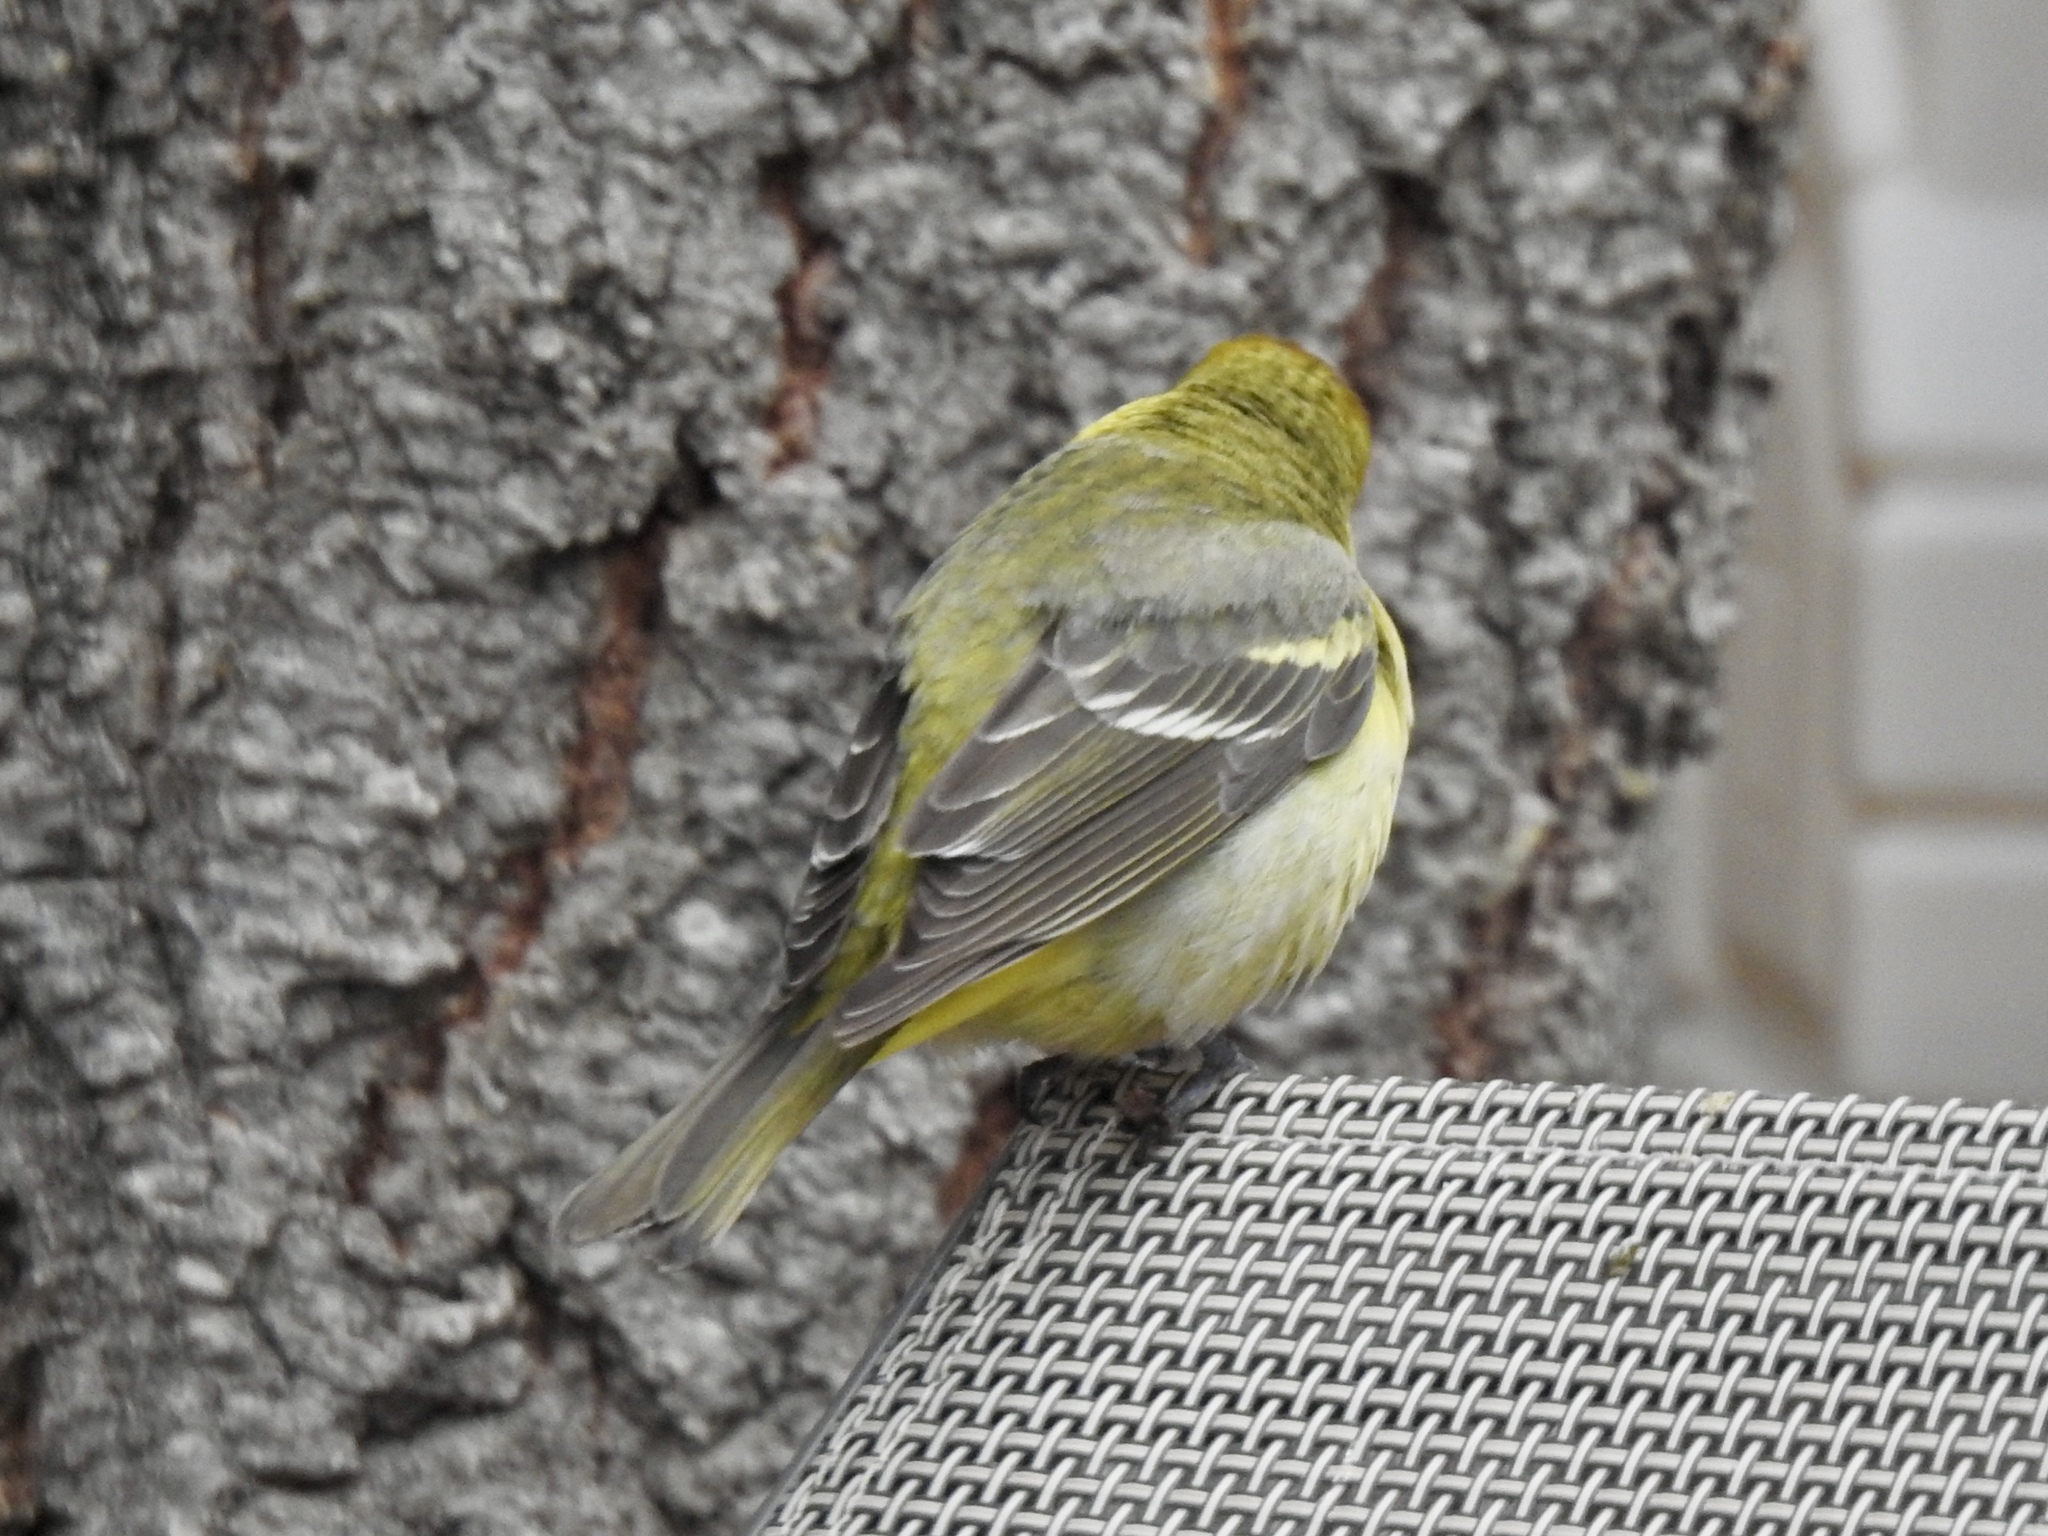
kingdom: Animalia
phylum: Chordata
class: Aves
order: Passeriformes
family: Cardinalidae
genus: Piranga
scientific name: Piranga ludoviciana
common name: Western tanager
